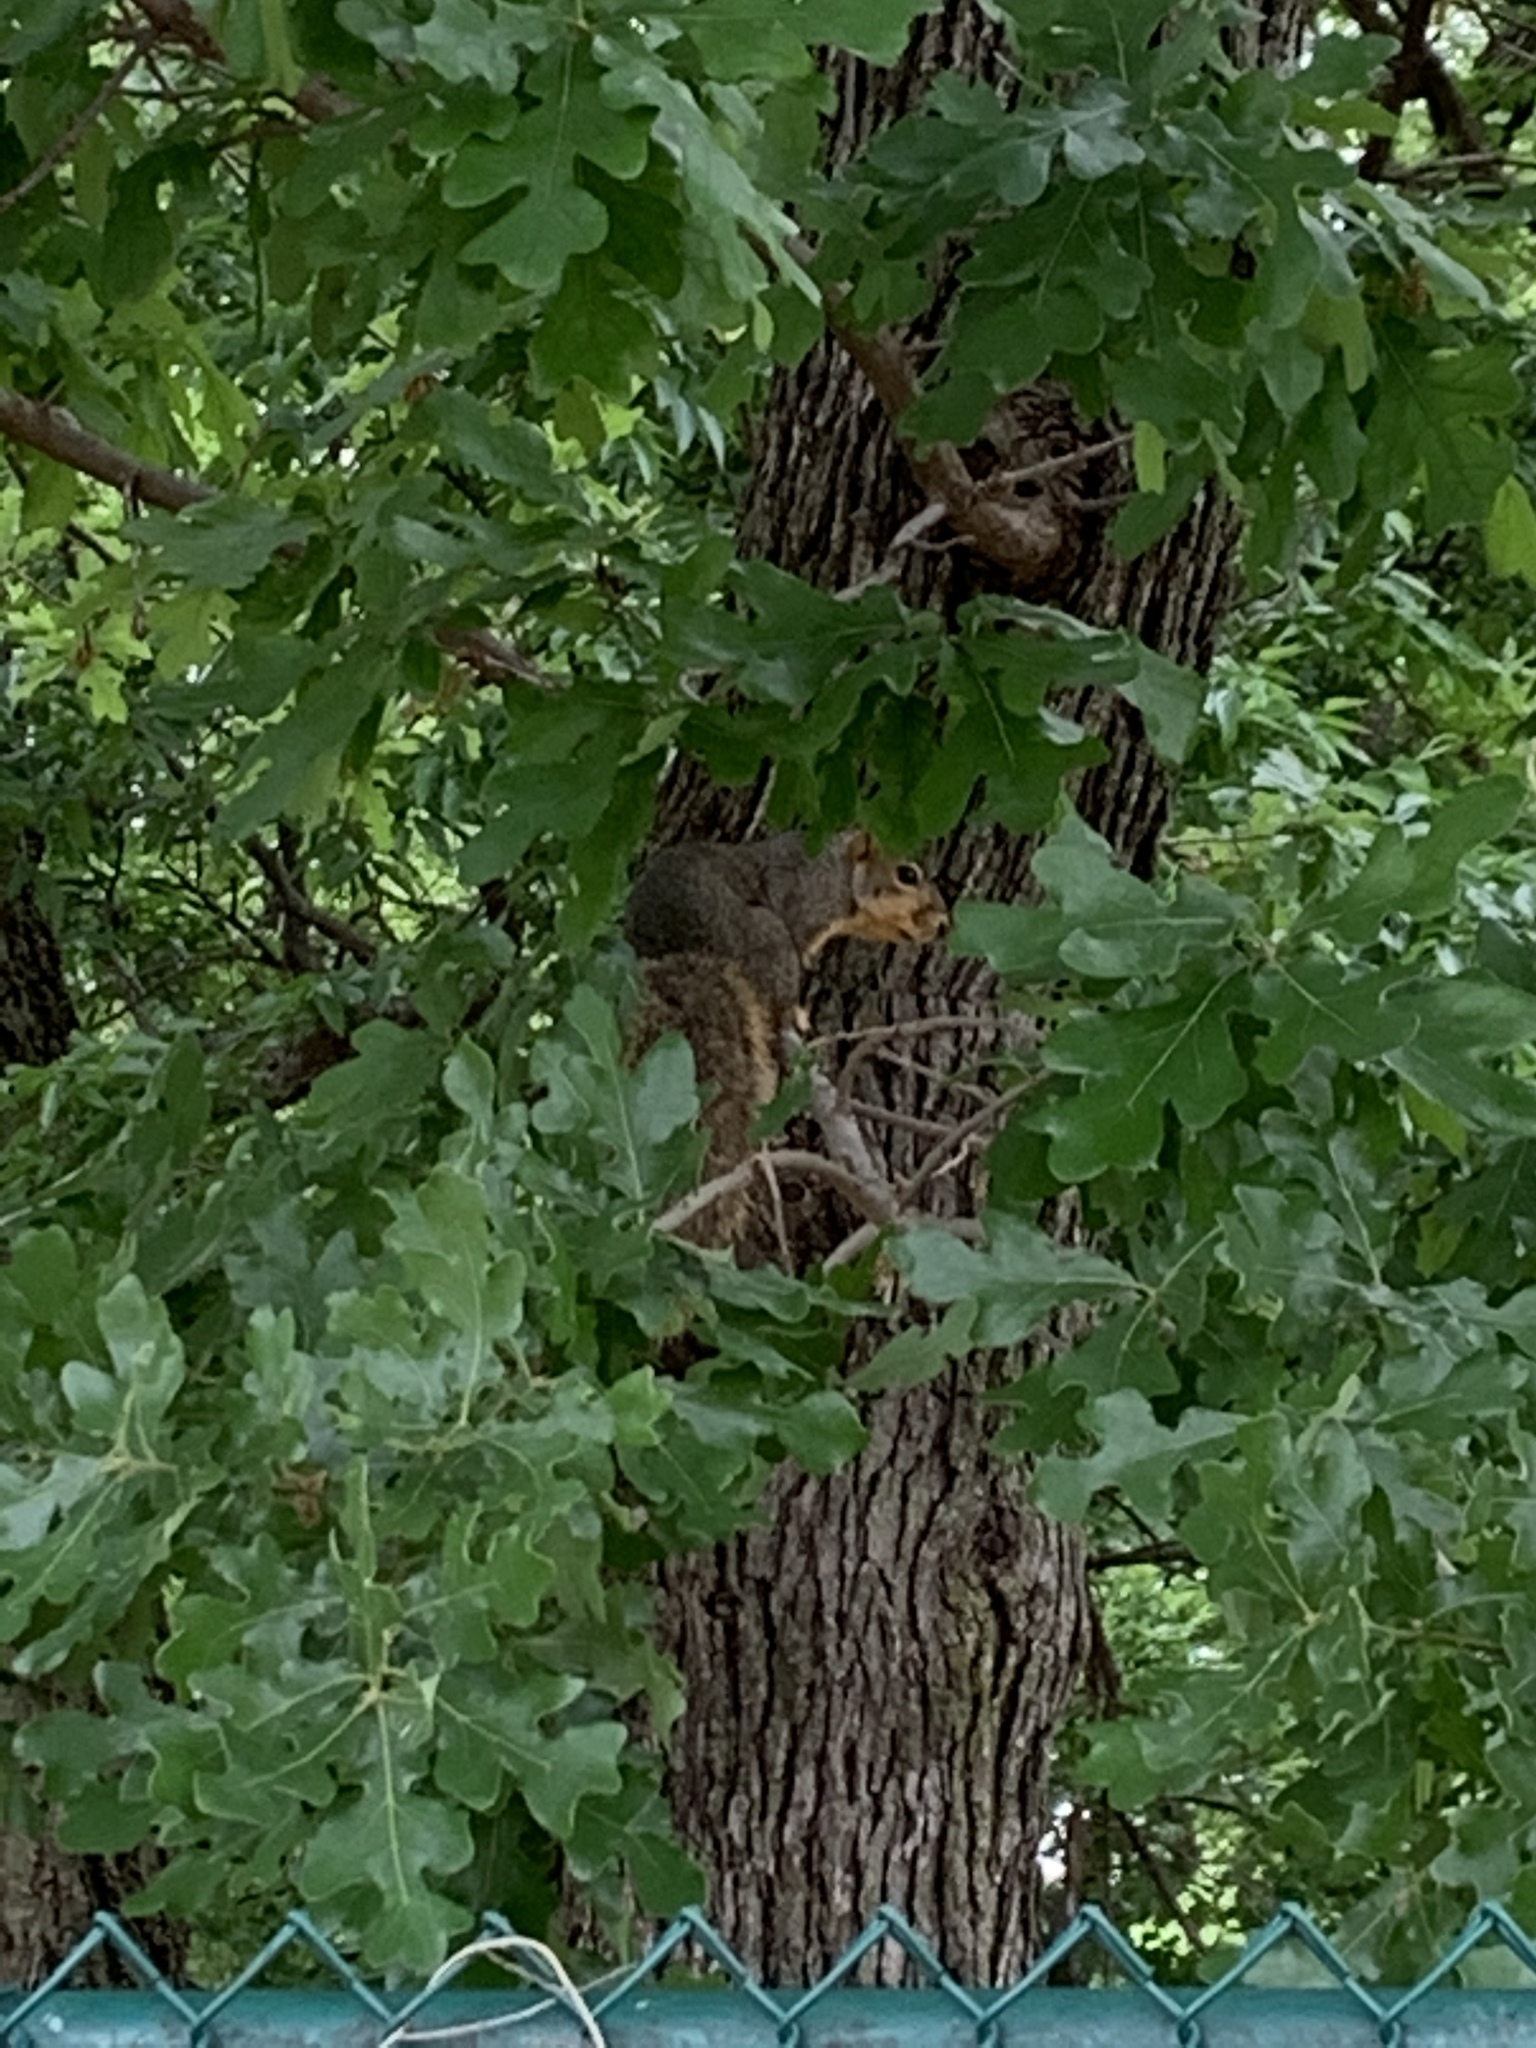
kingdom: Animalia
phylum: Chordata
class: Mammalia
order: Rodentia
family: Sciuridae
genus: Sciurus
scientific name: Sciurus niger
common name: Fox squirrel
